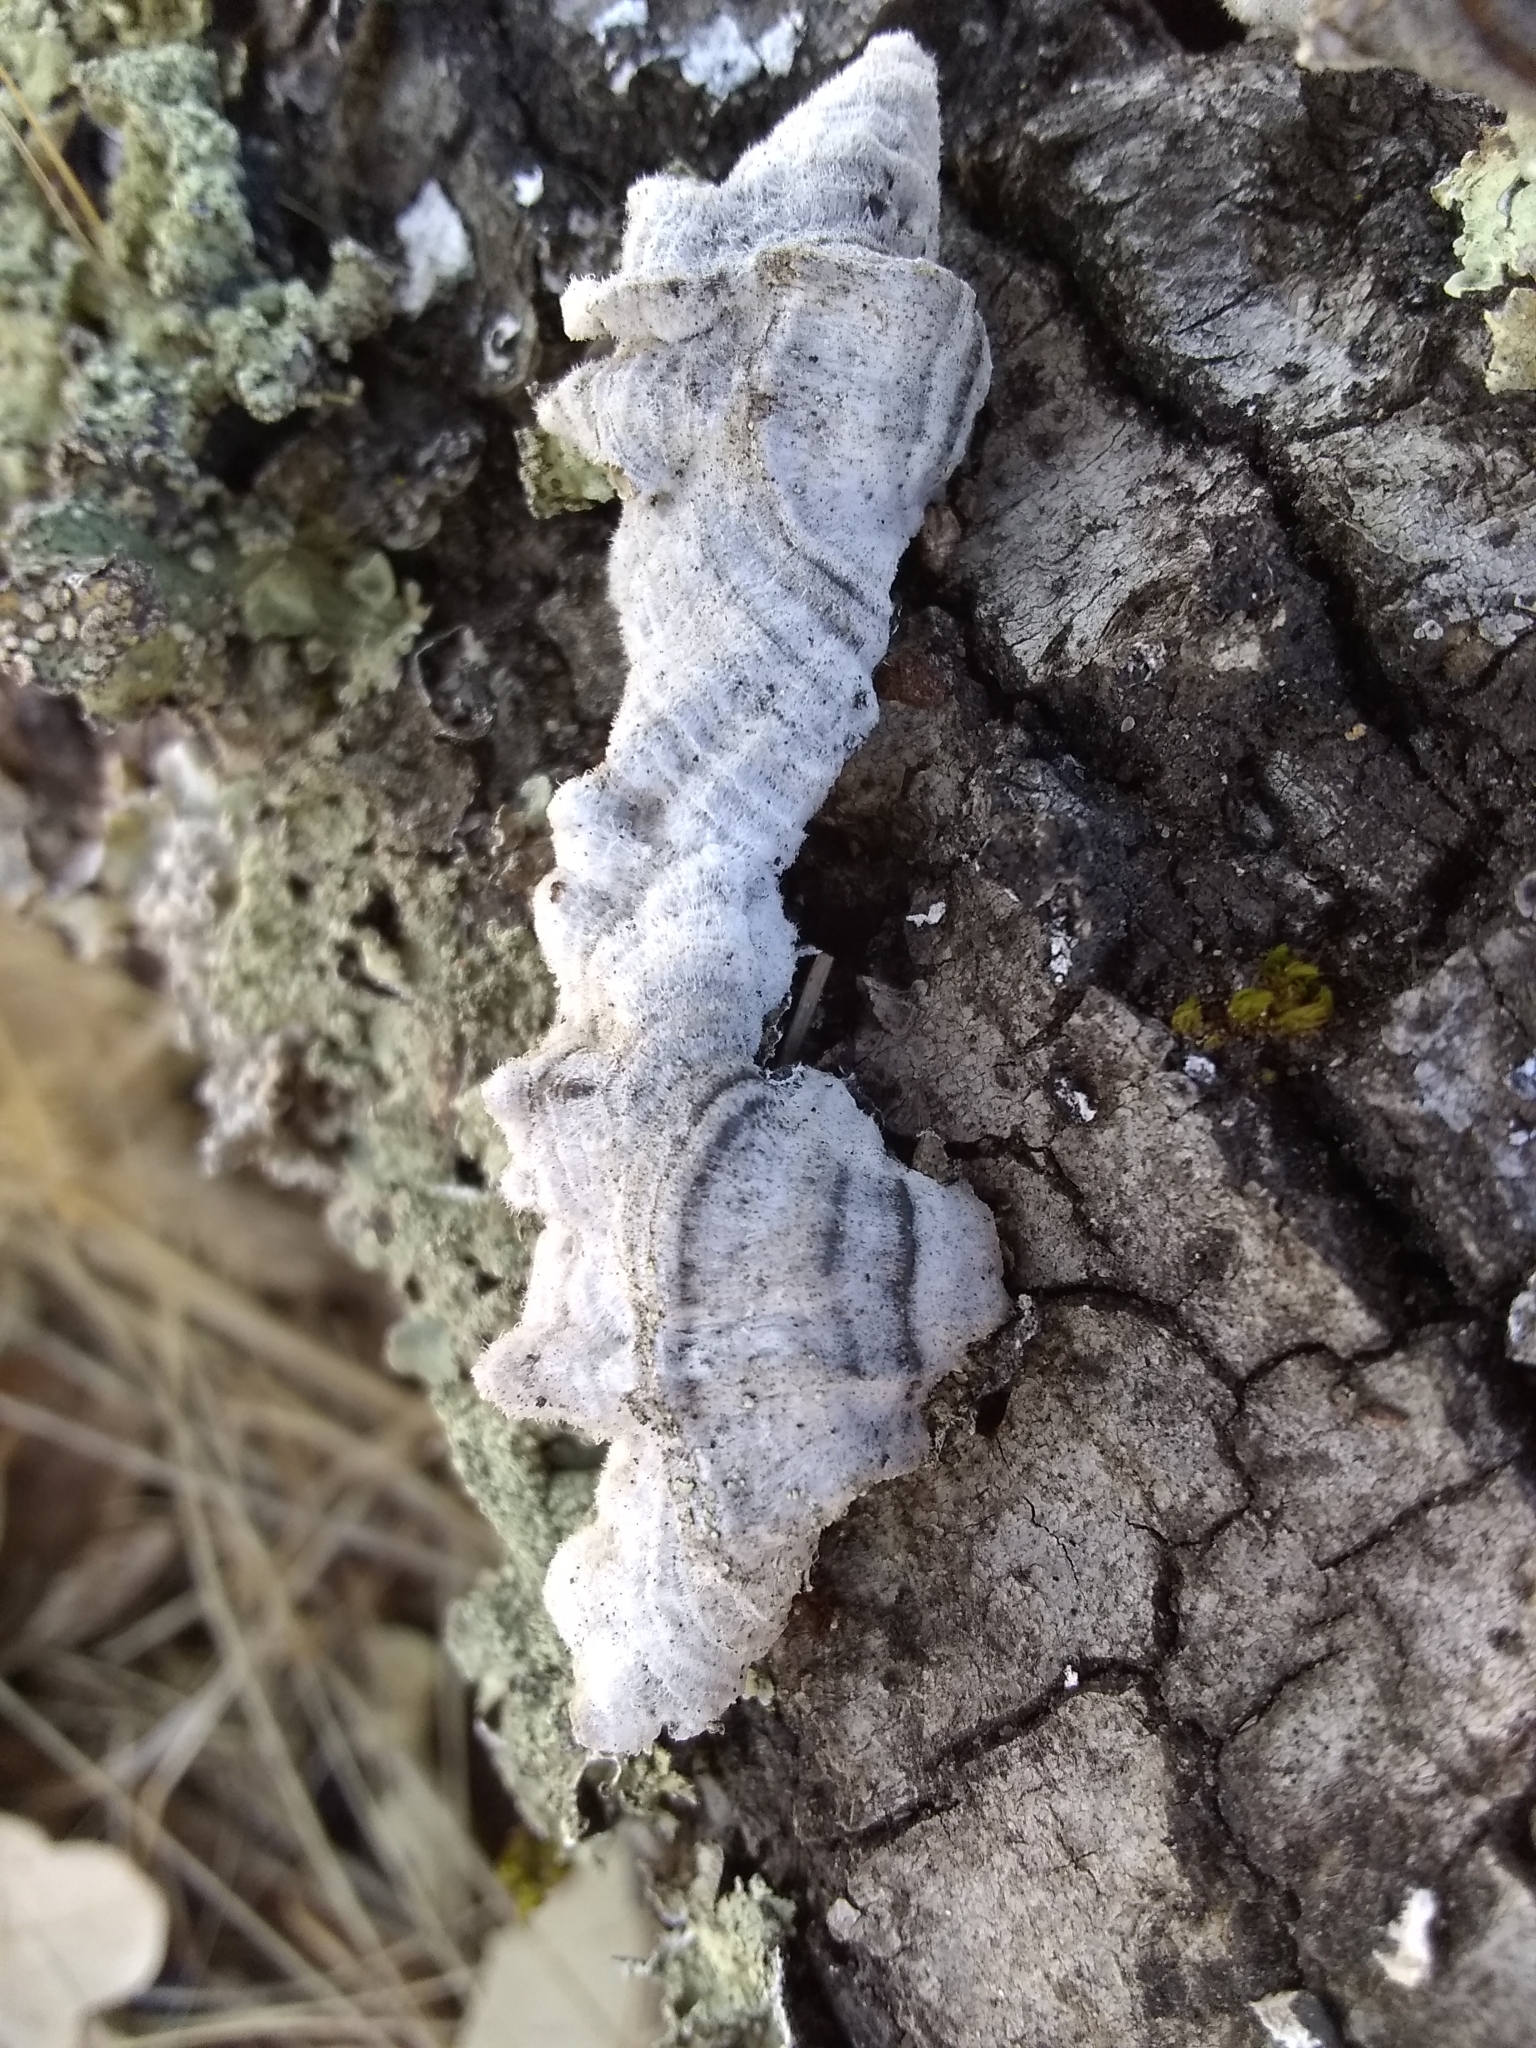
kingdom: Fungi
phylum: Basidiomycota
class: Agaricomycetes
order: Russulales
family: Stereaceae
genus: Stereum
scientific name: Stereum hirsutum
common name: Hairy curtain crust
